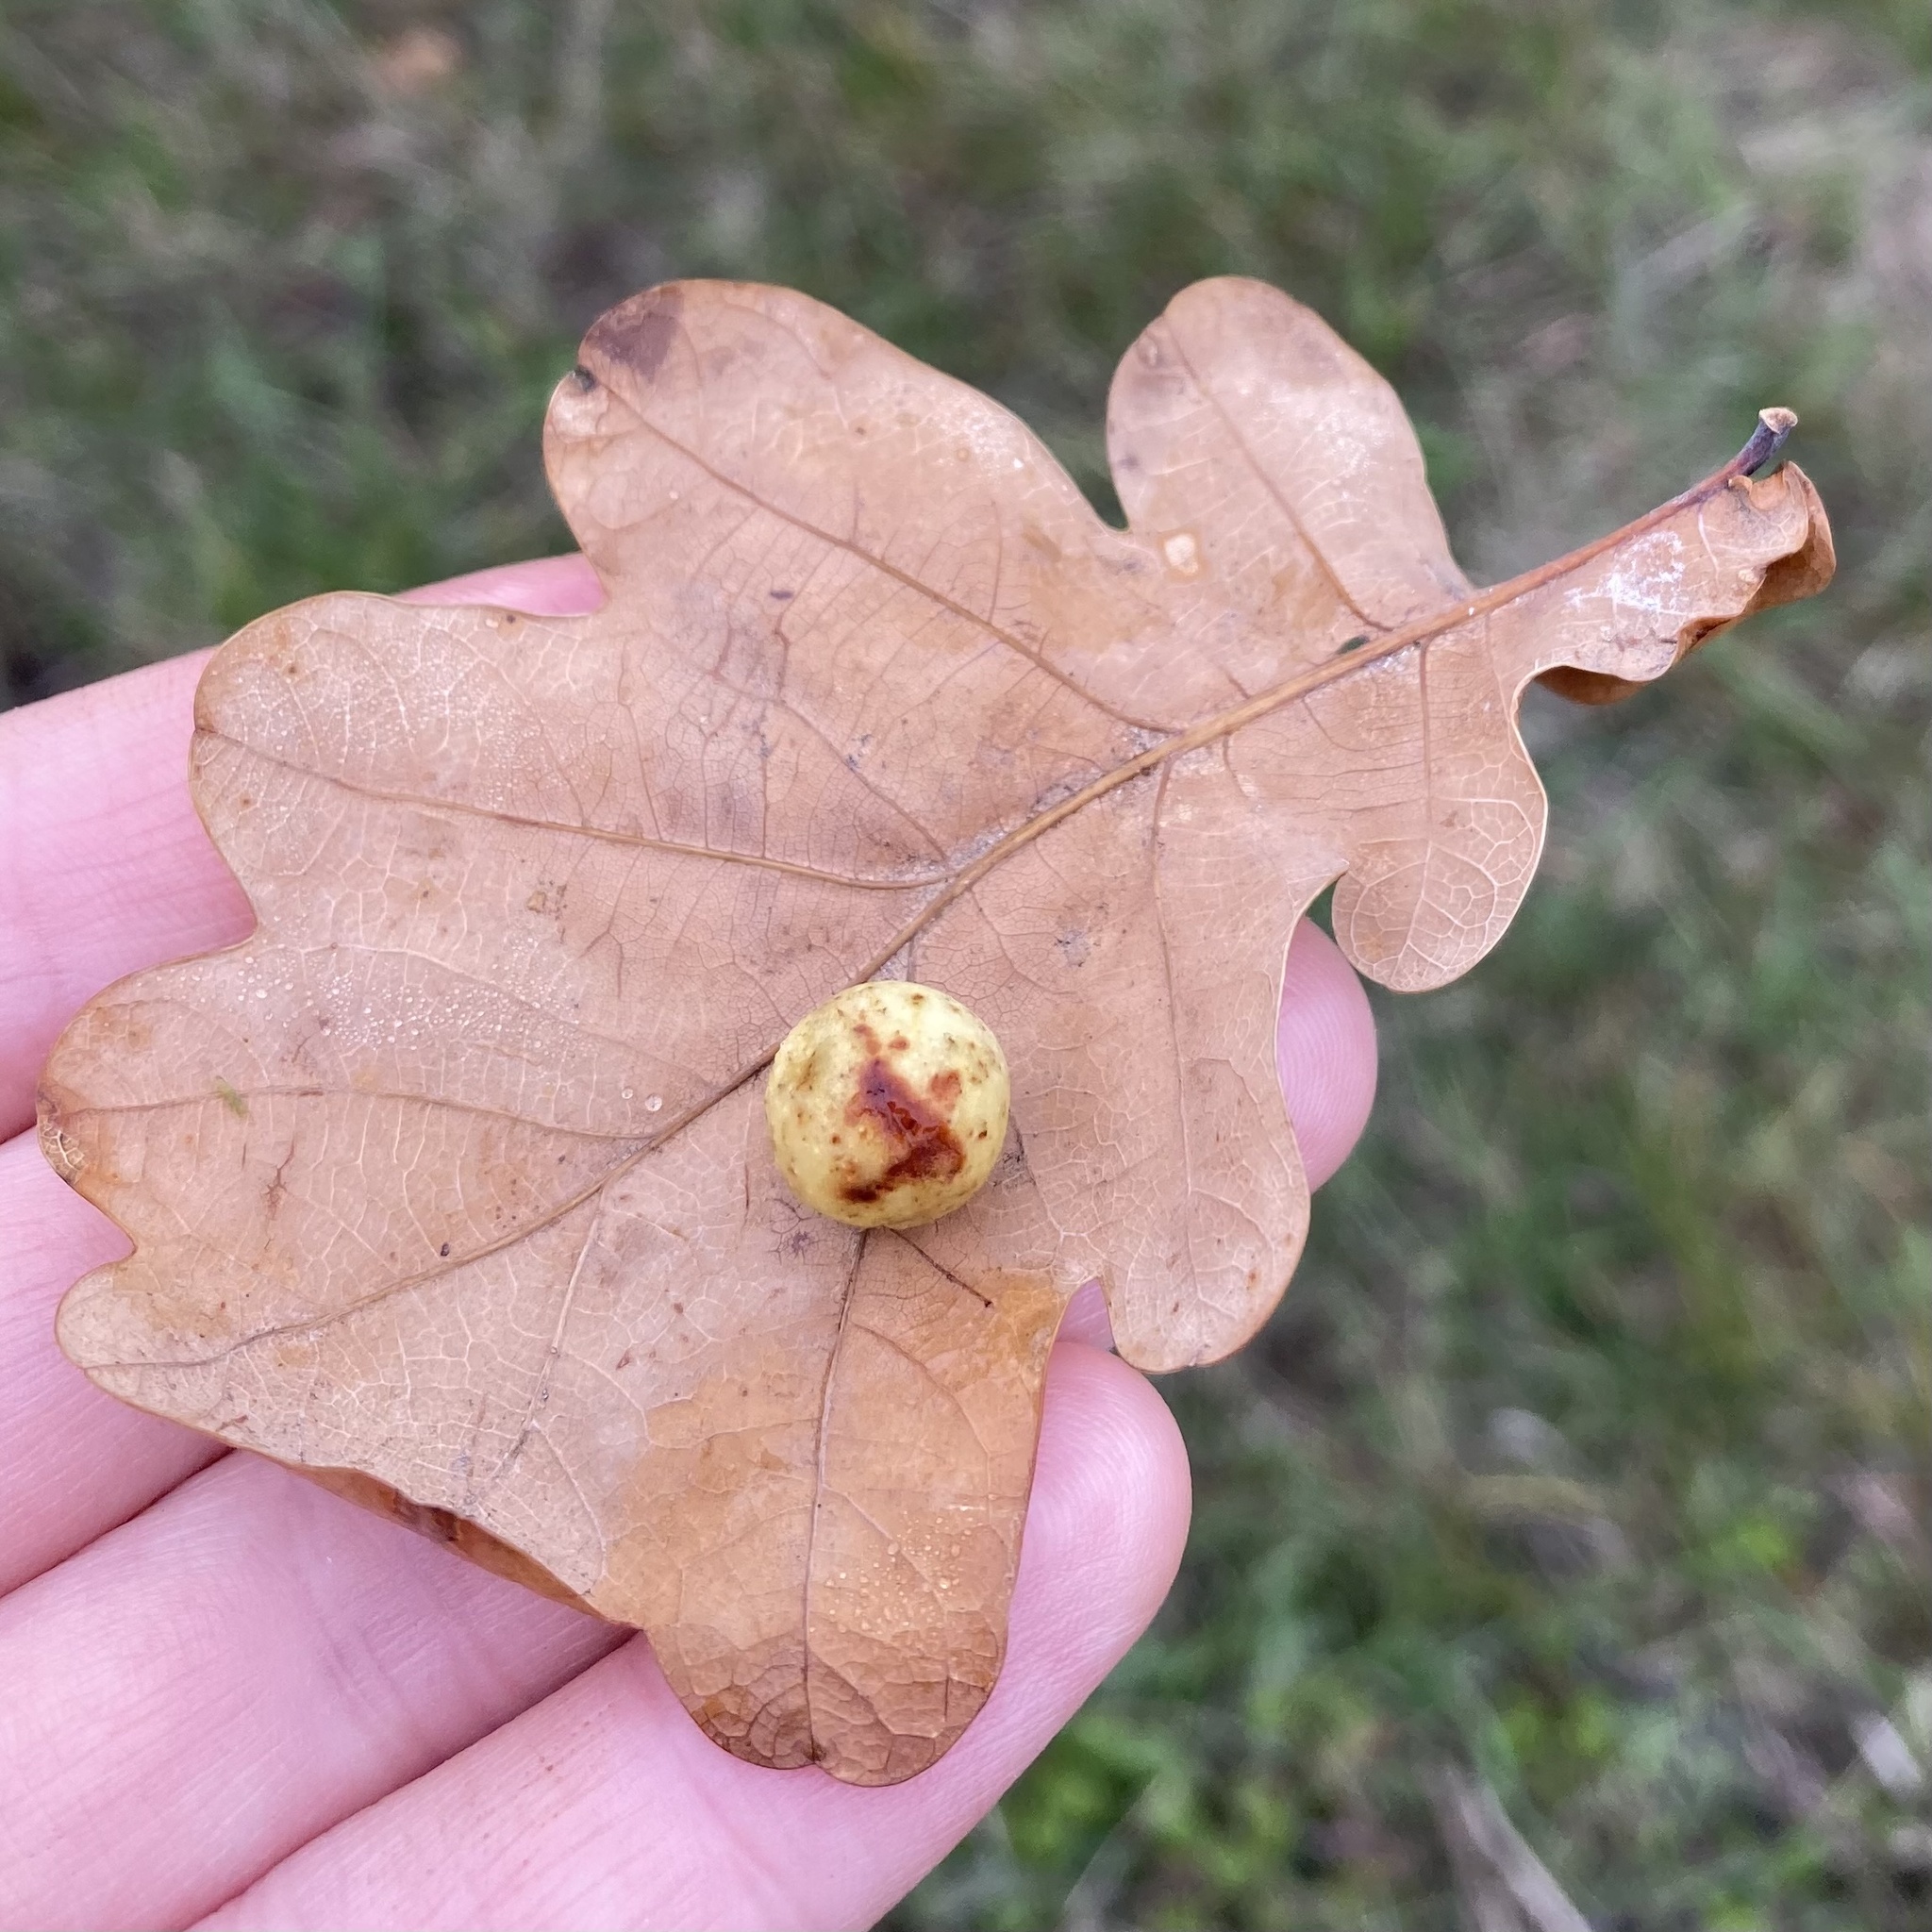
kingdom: Animalia
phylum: Arthropoda
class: Insecta
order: Hymenoptera
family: Cynipidae
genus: Cynips
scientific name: Cynips quercusfolii
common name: Cherry gall
